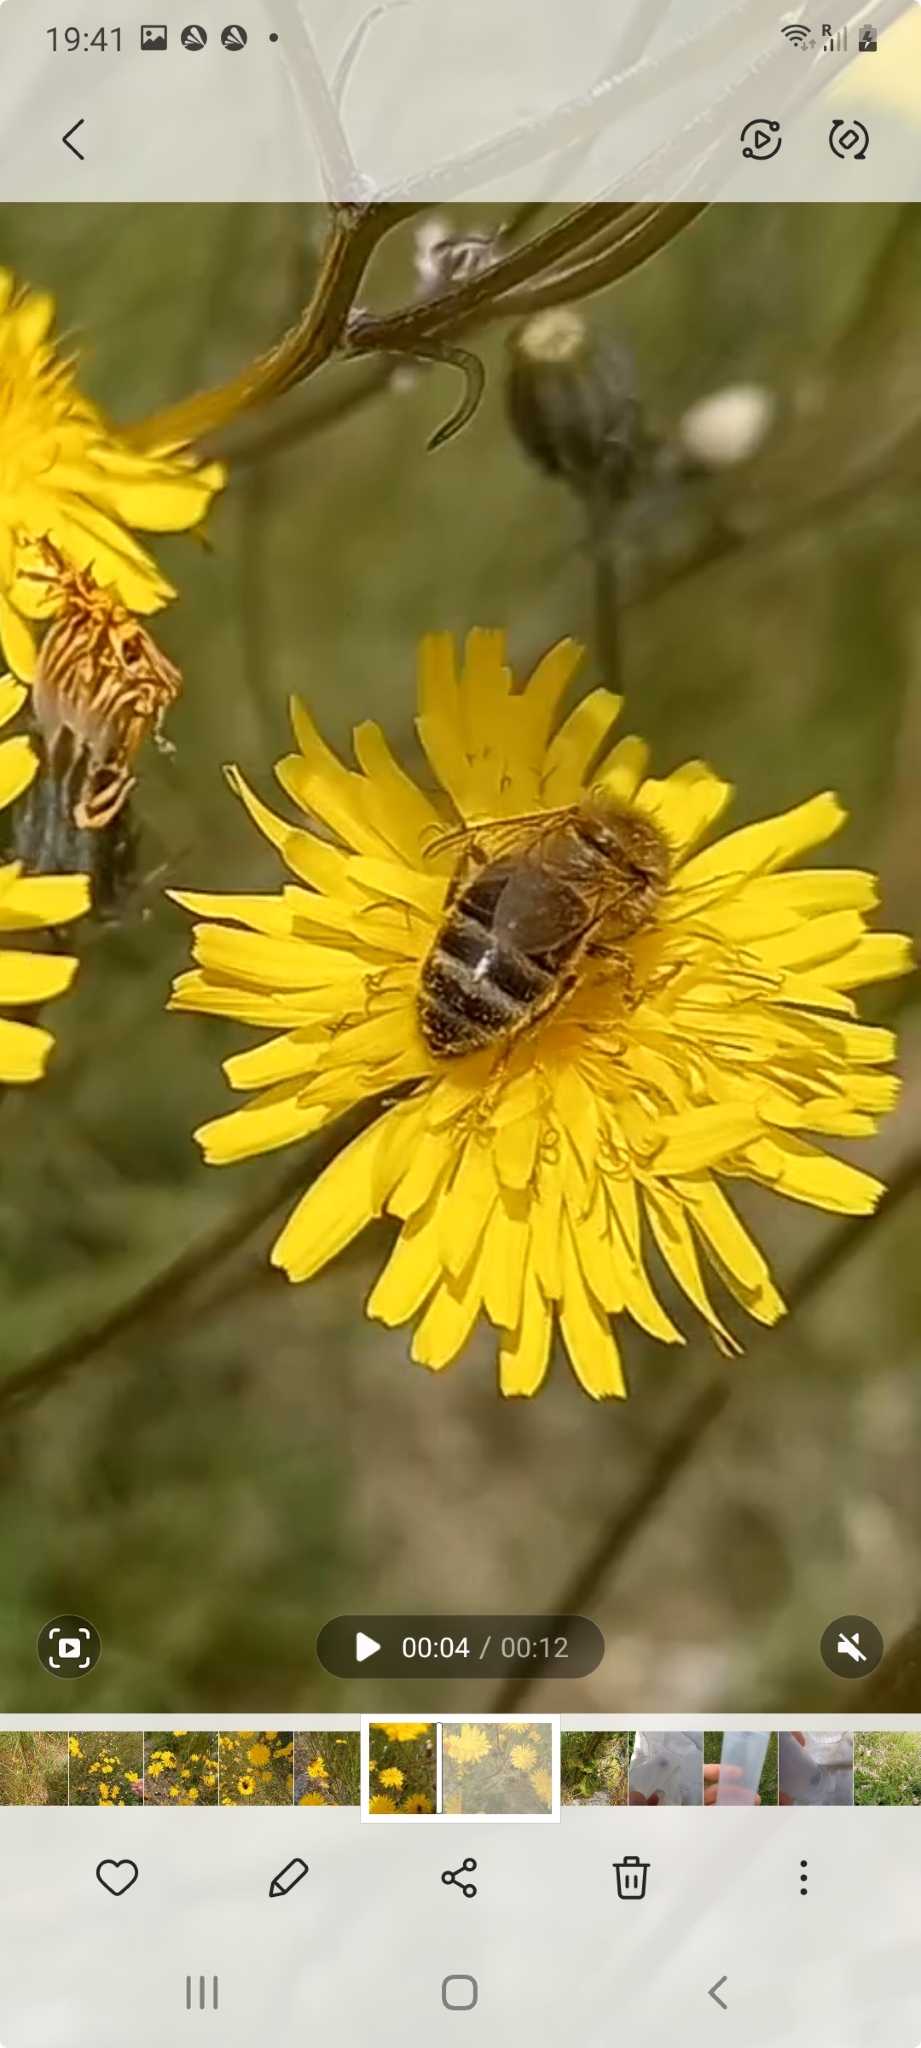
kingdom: Animalia
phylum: Arthropoda
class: Insecta
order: Hymenoptera
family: Apidae
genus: Apis
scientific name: Apis mellifera
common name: Honey bee
